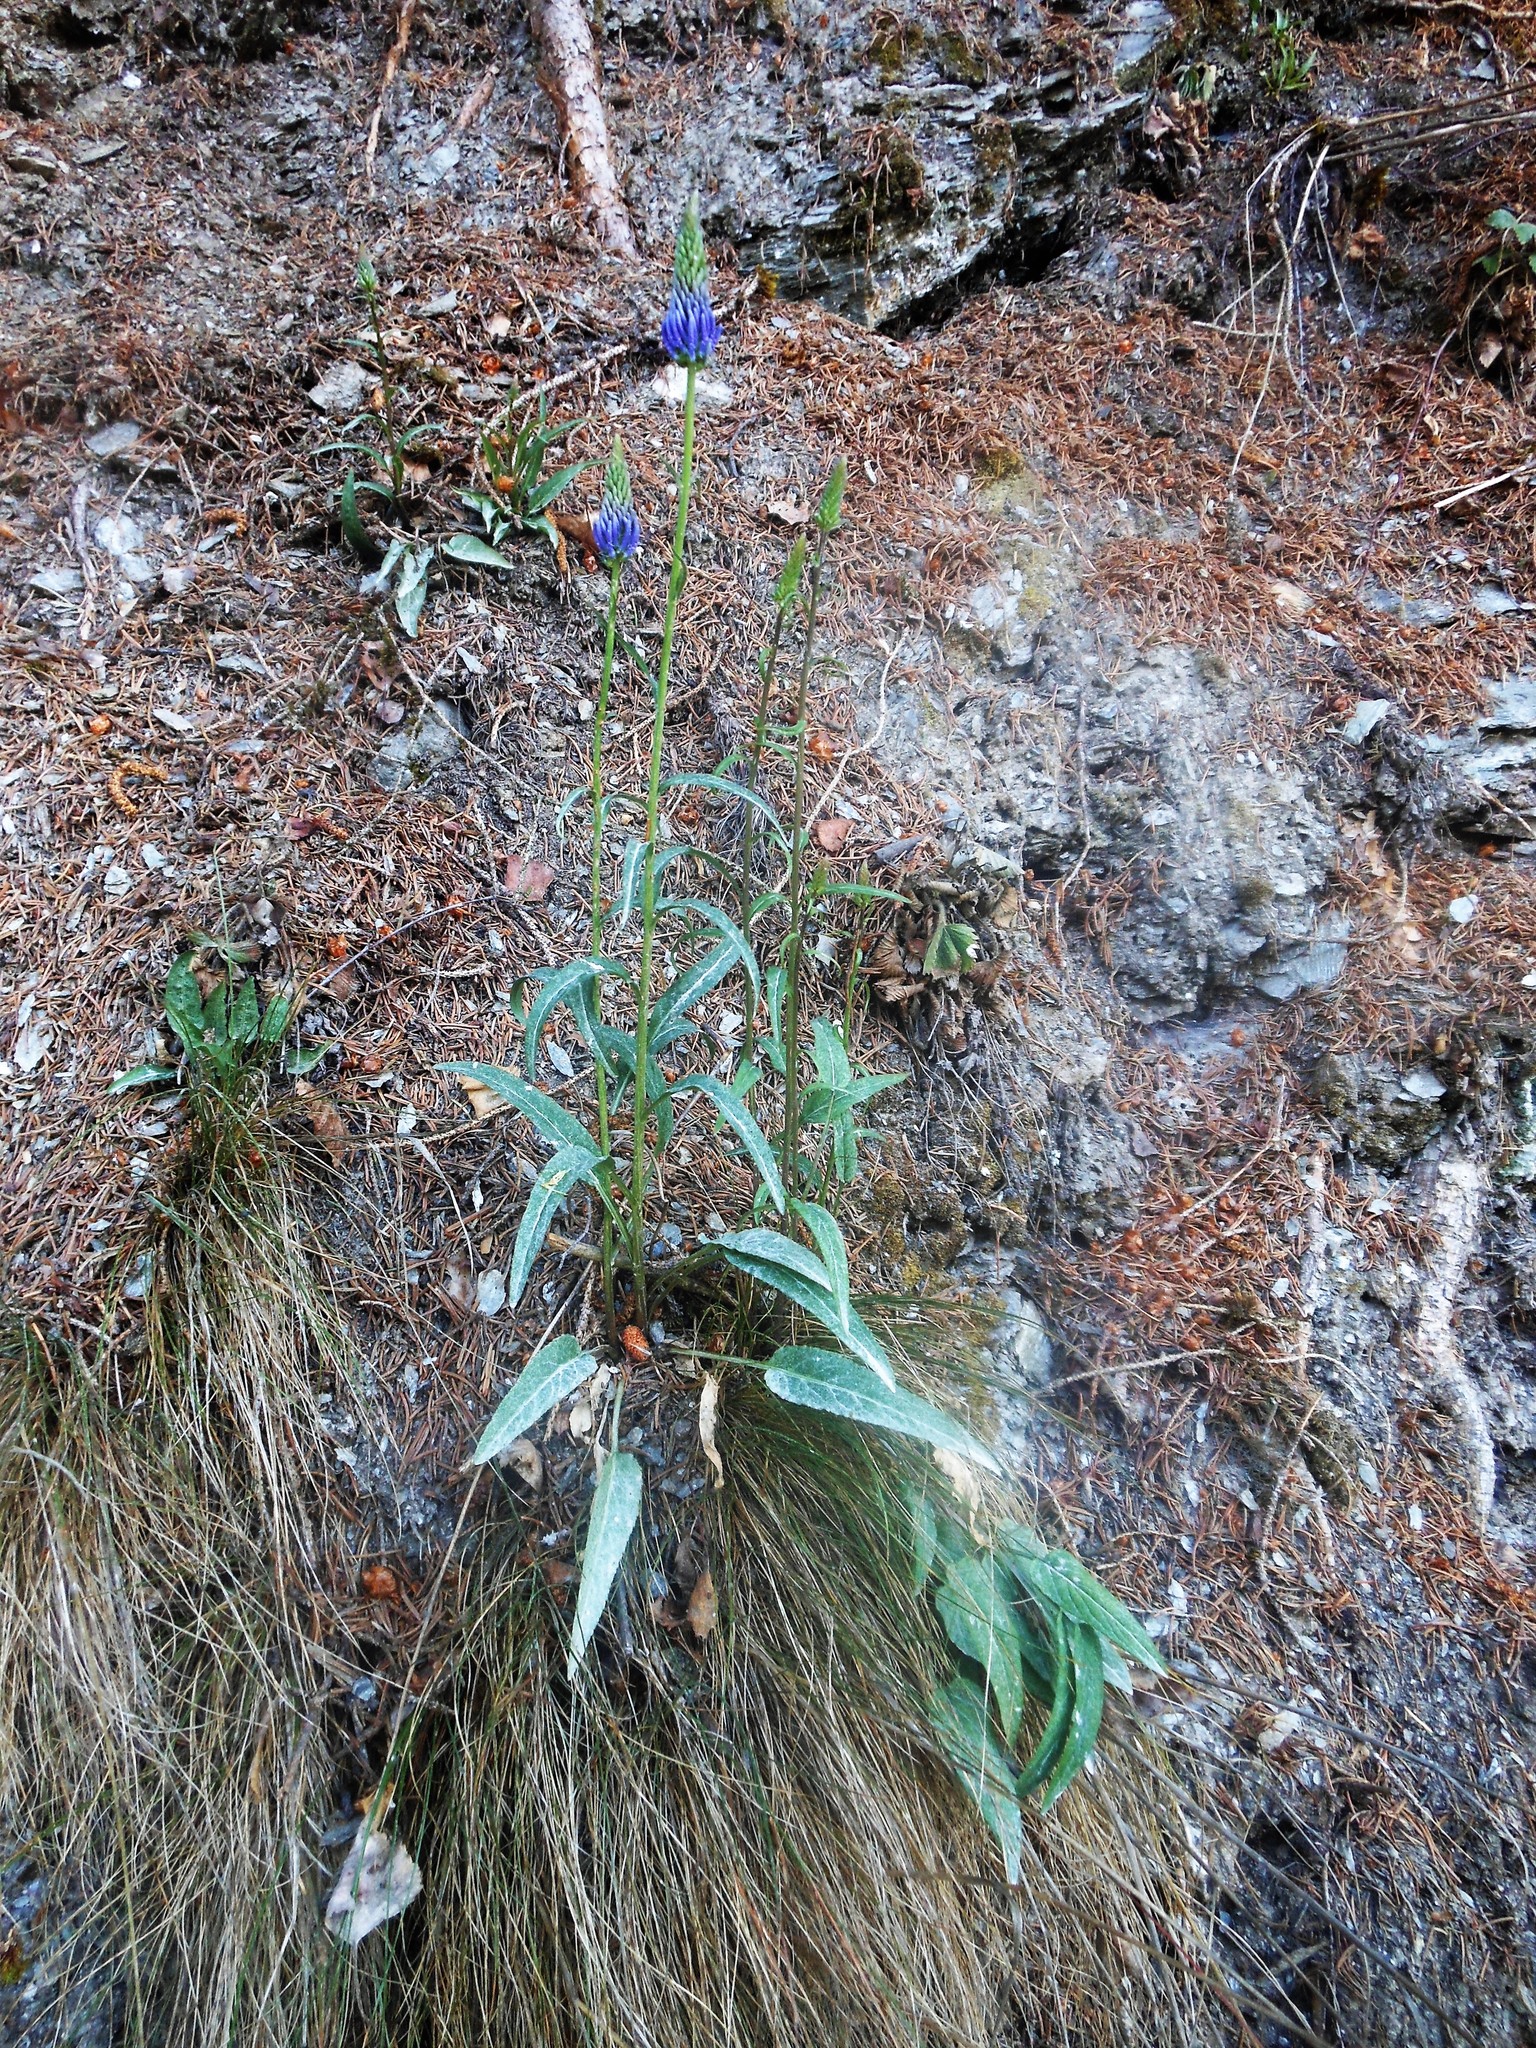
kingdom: Plantae
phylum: Tracheophyta
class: Magnoliopsida
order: Asterales
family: Campanulaceae
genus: Phyteuma
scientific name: Phyteuma persicifolium
